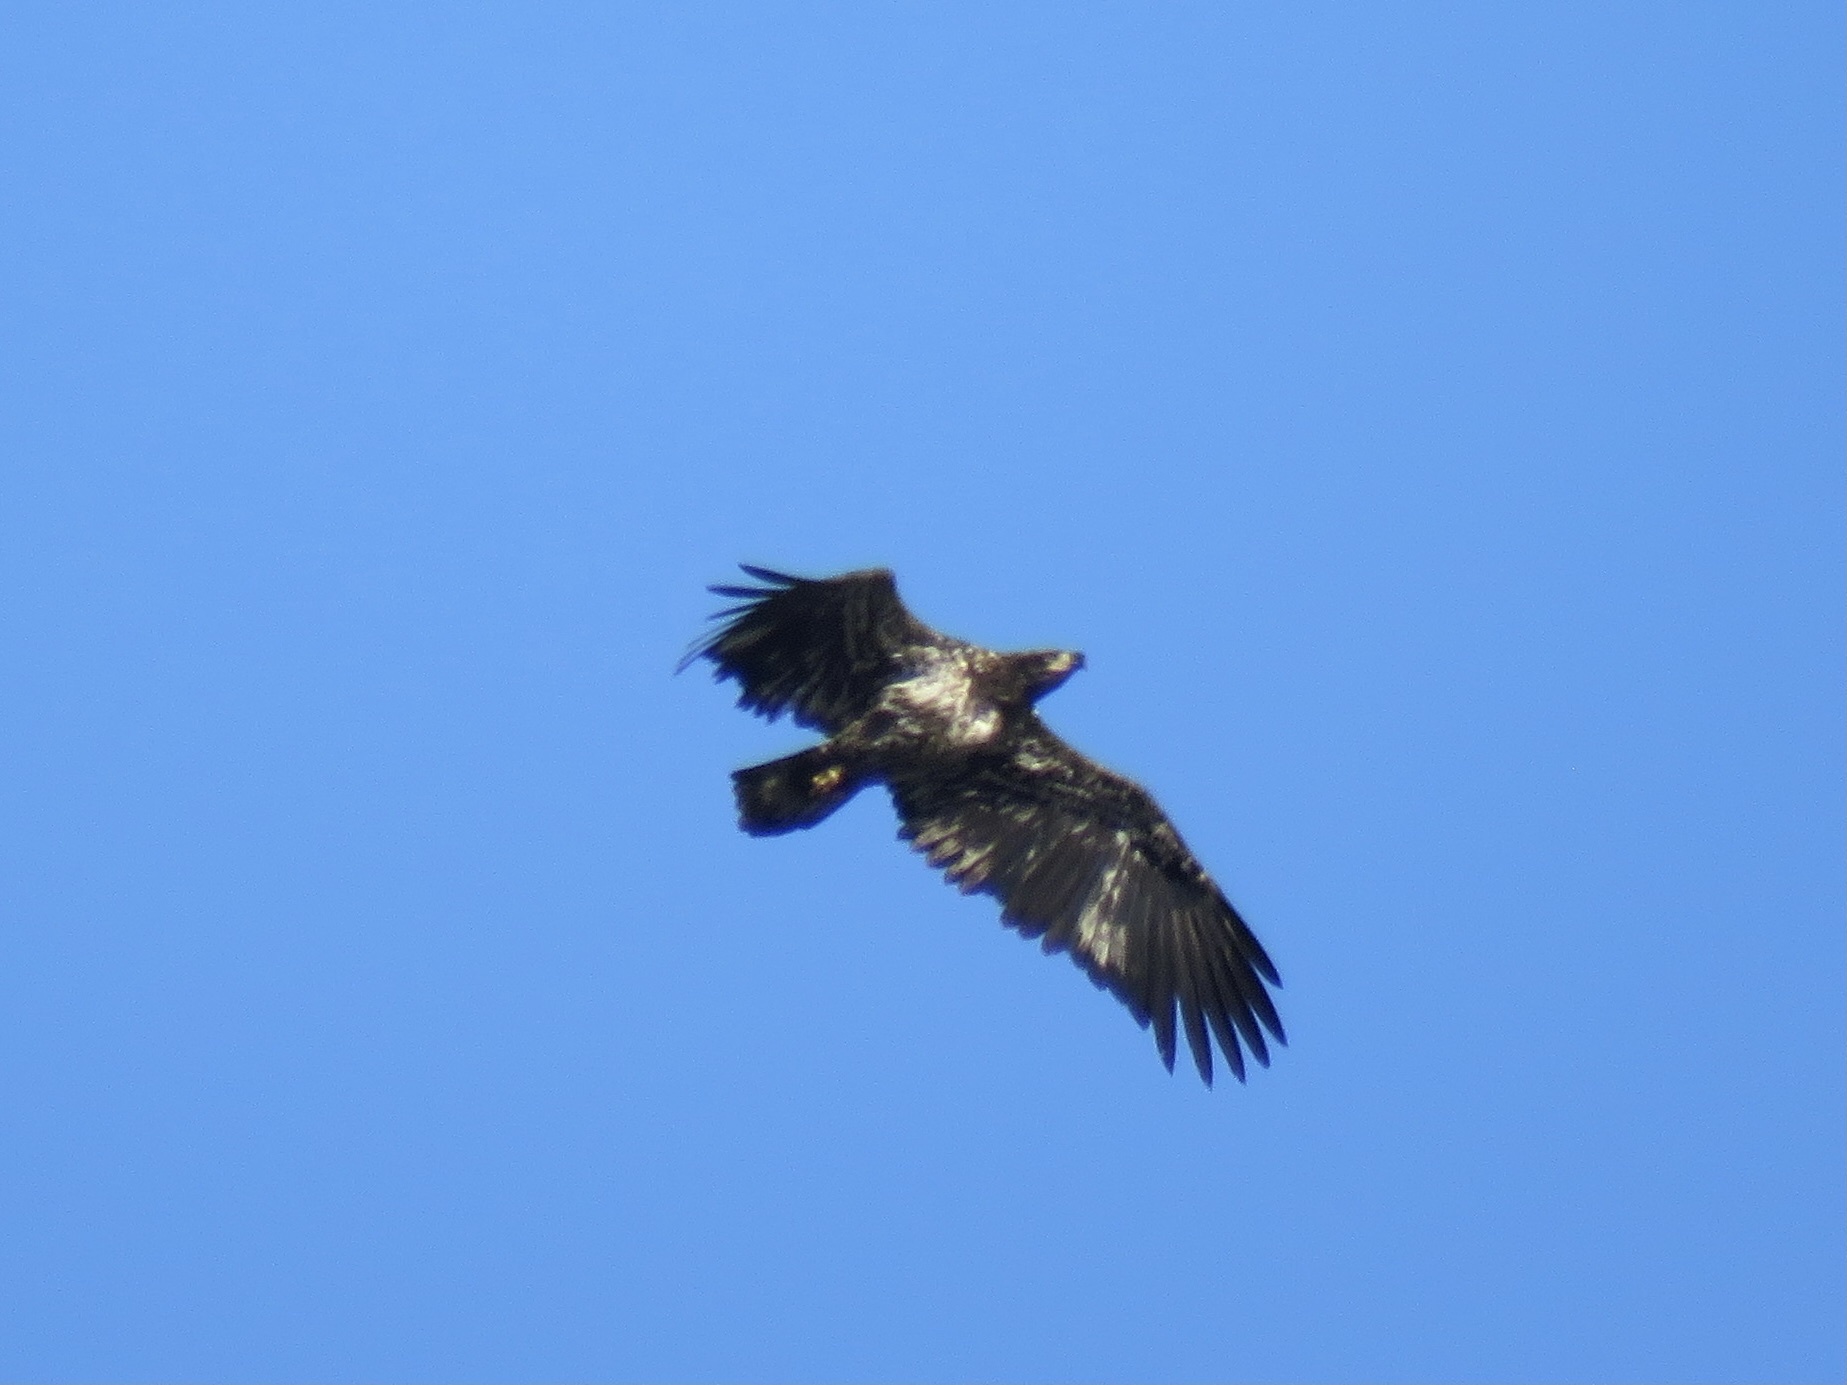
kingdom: Animalia
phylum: Chordata
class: Aves
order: Accipitriformes
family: Accipitridae
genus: Haliaeetus
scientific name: Haliaeetus leucocephalus
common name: Bald eagle
